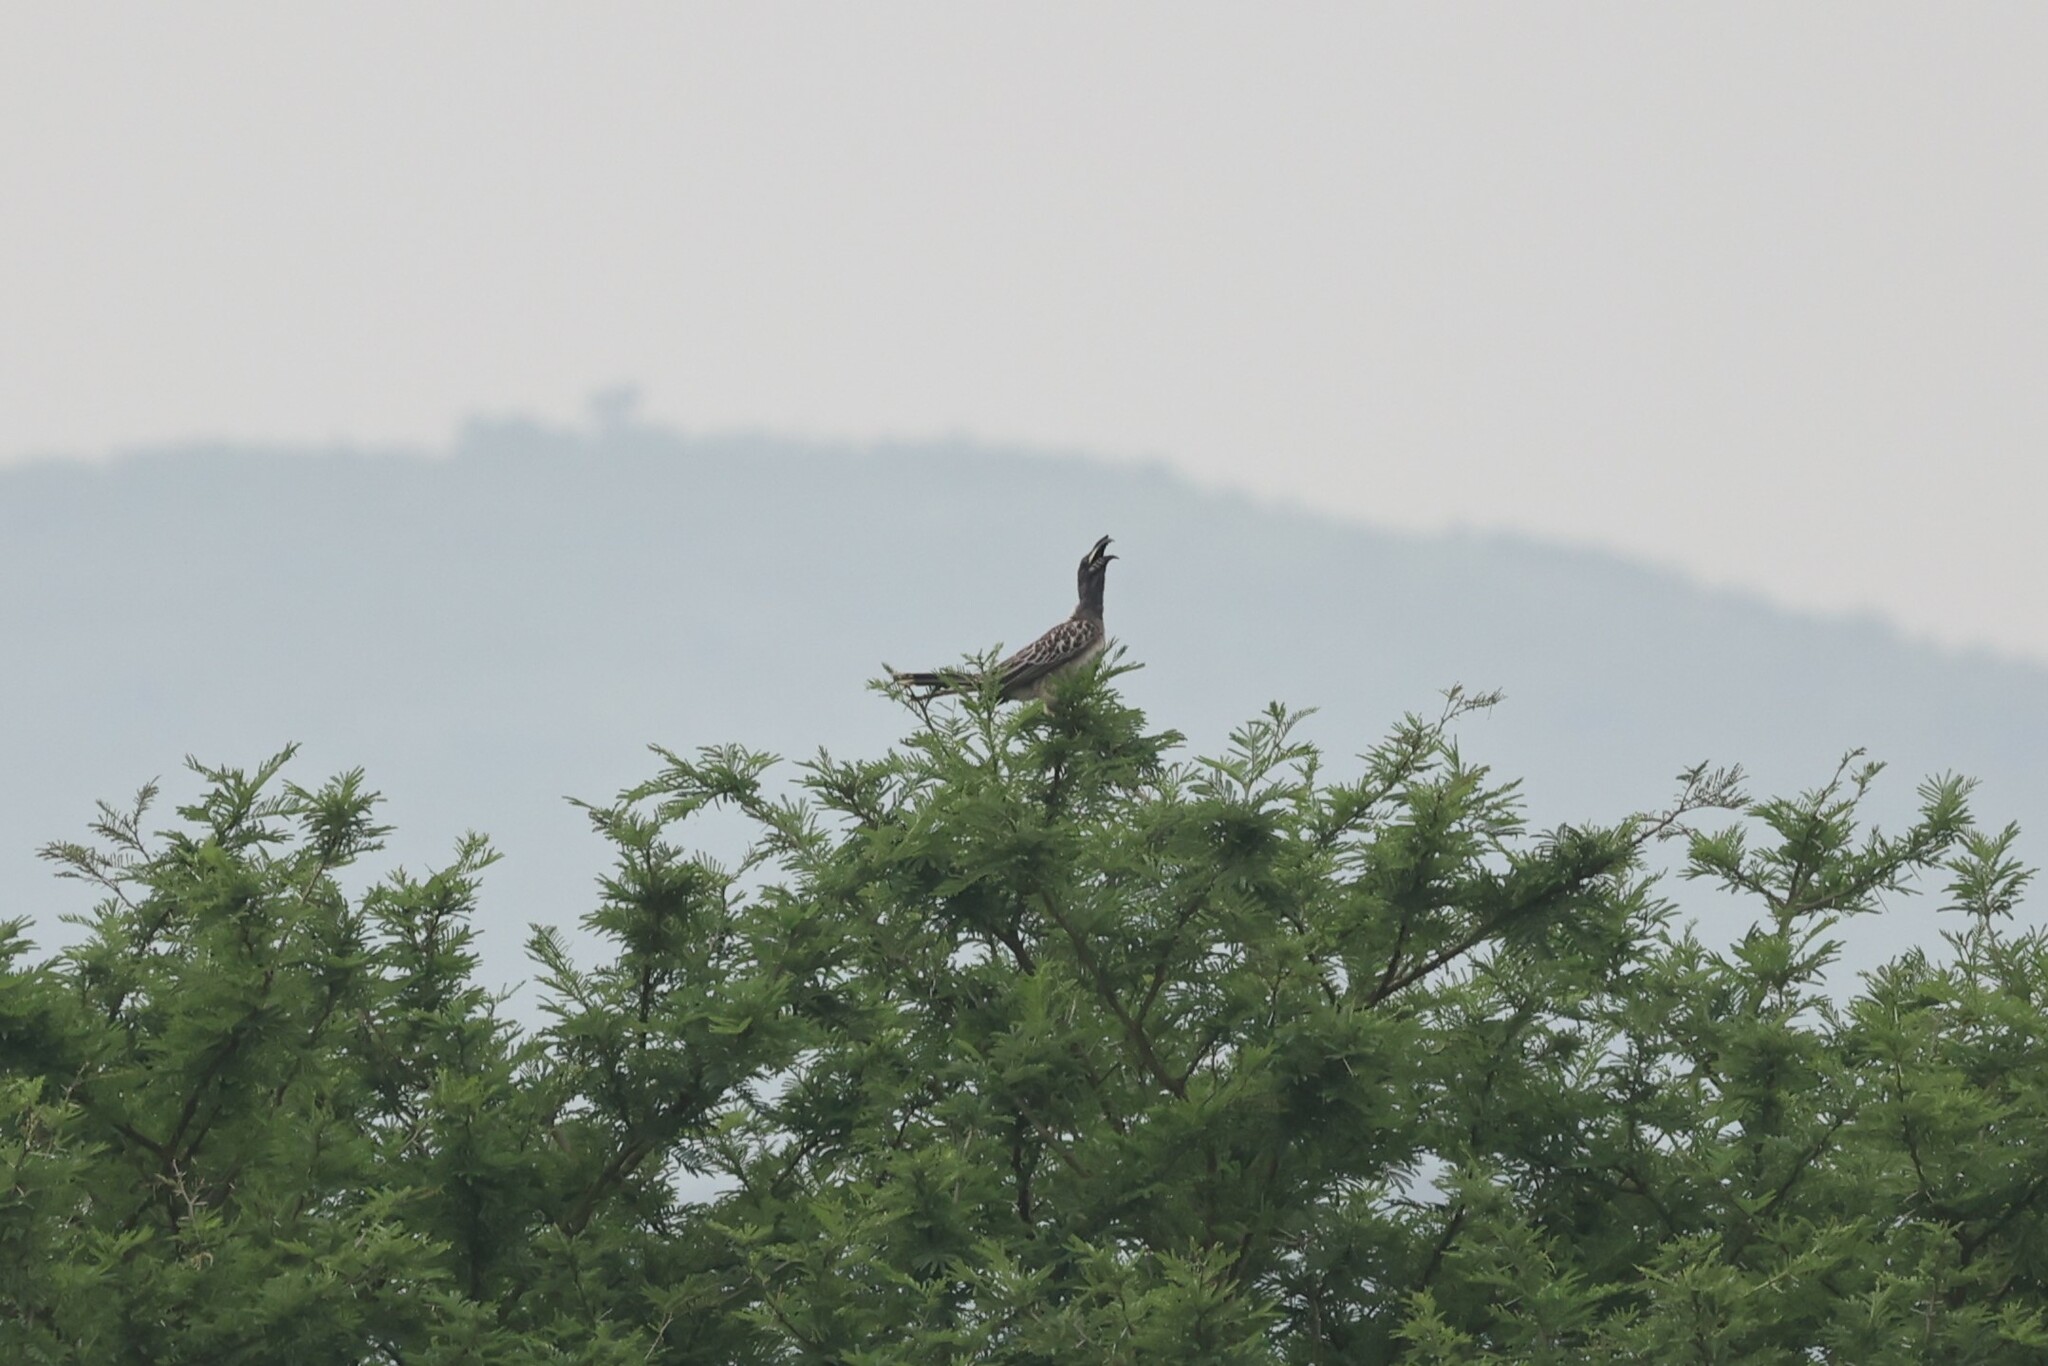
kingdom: Animalia
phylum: Chordata
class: Aves
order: Bucerotiformes
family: Bucerotidae
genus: Lophoceros
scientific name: Lophoceros nasutus
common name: African grey hornbill
